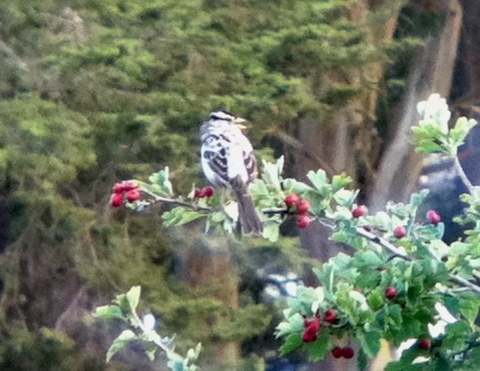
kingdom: Animalia
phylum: Chordata
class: Aves
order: Passeriformes
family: Passerellidae
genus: Zonotrichia
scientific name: Zonotrichia leucophrys
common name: White-crowned sparrow
